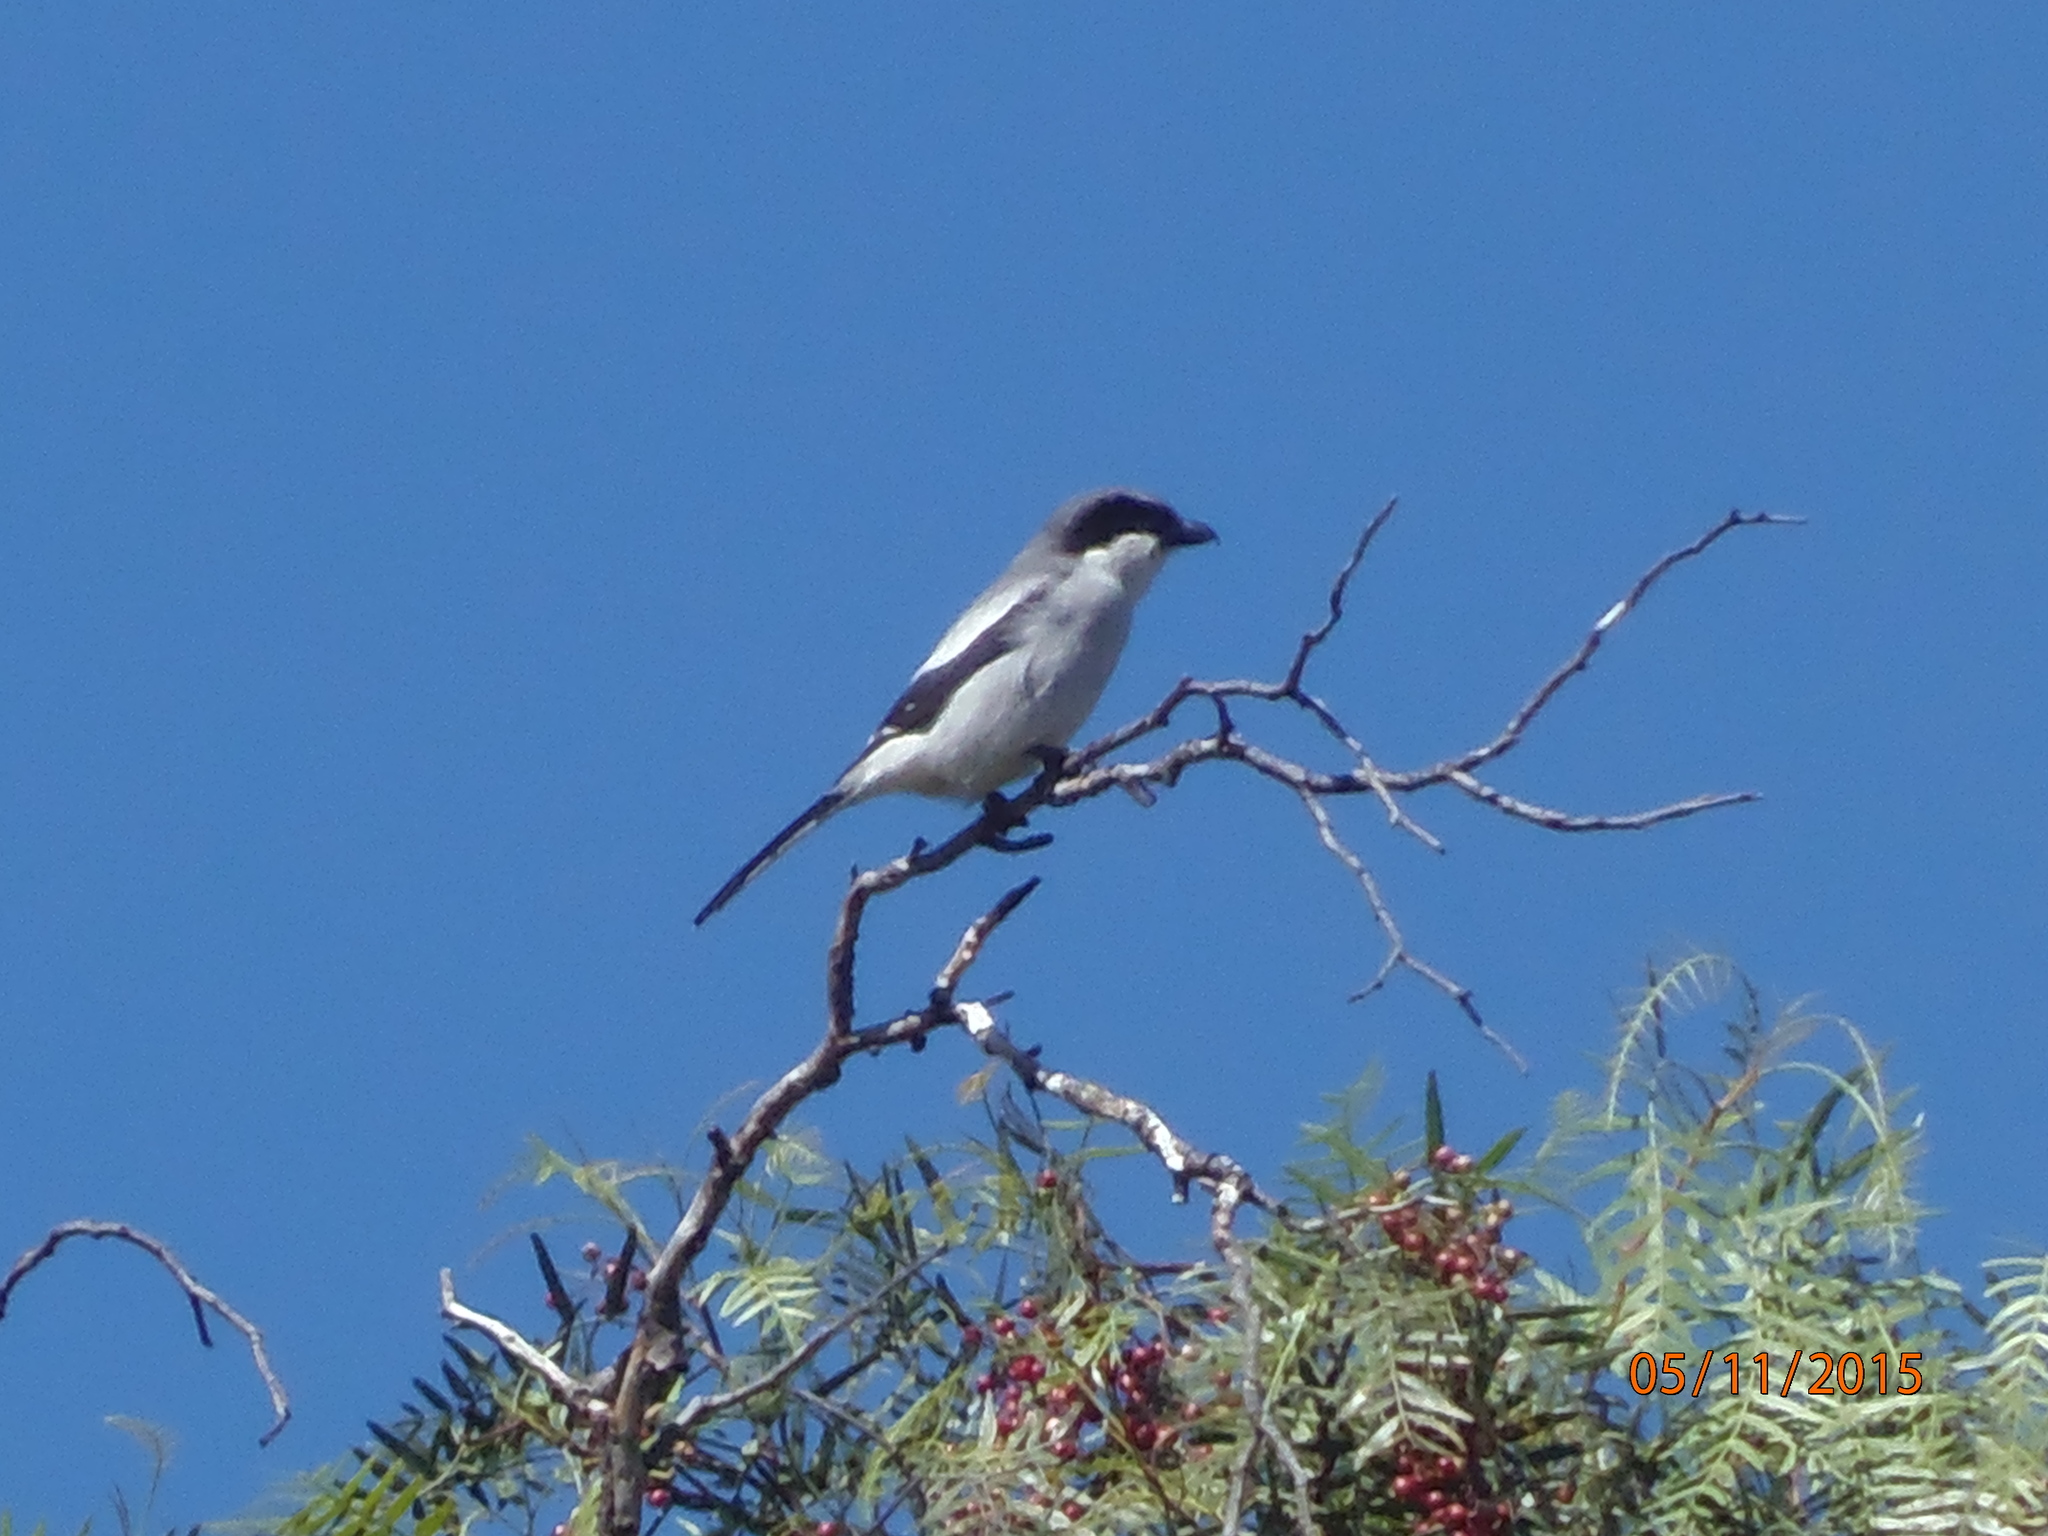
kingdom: Animalia
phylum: Chordata
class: Aves
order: Passeriformes
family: Laniidae
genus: Lanius
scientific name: Lanius ludovicianus
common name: Loggerhead shrike
